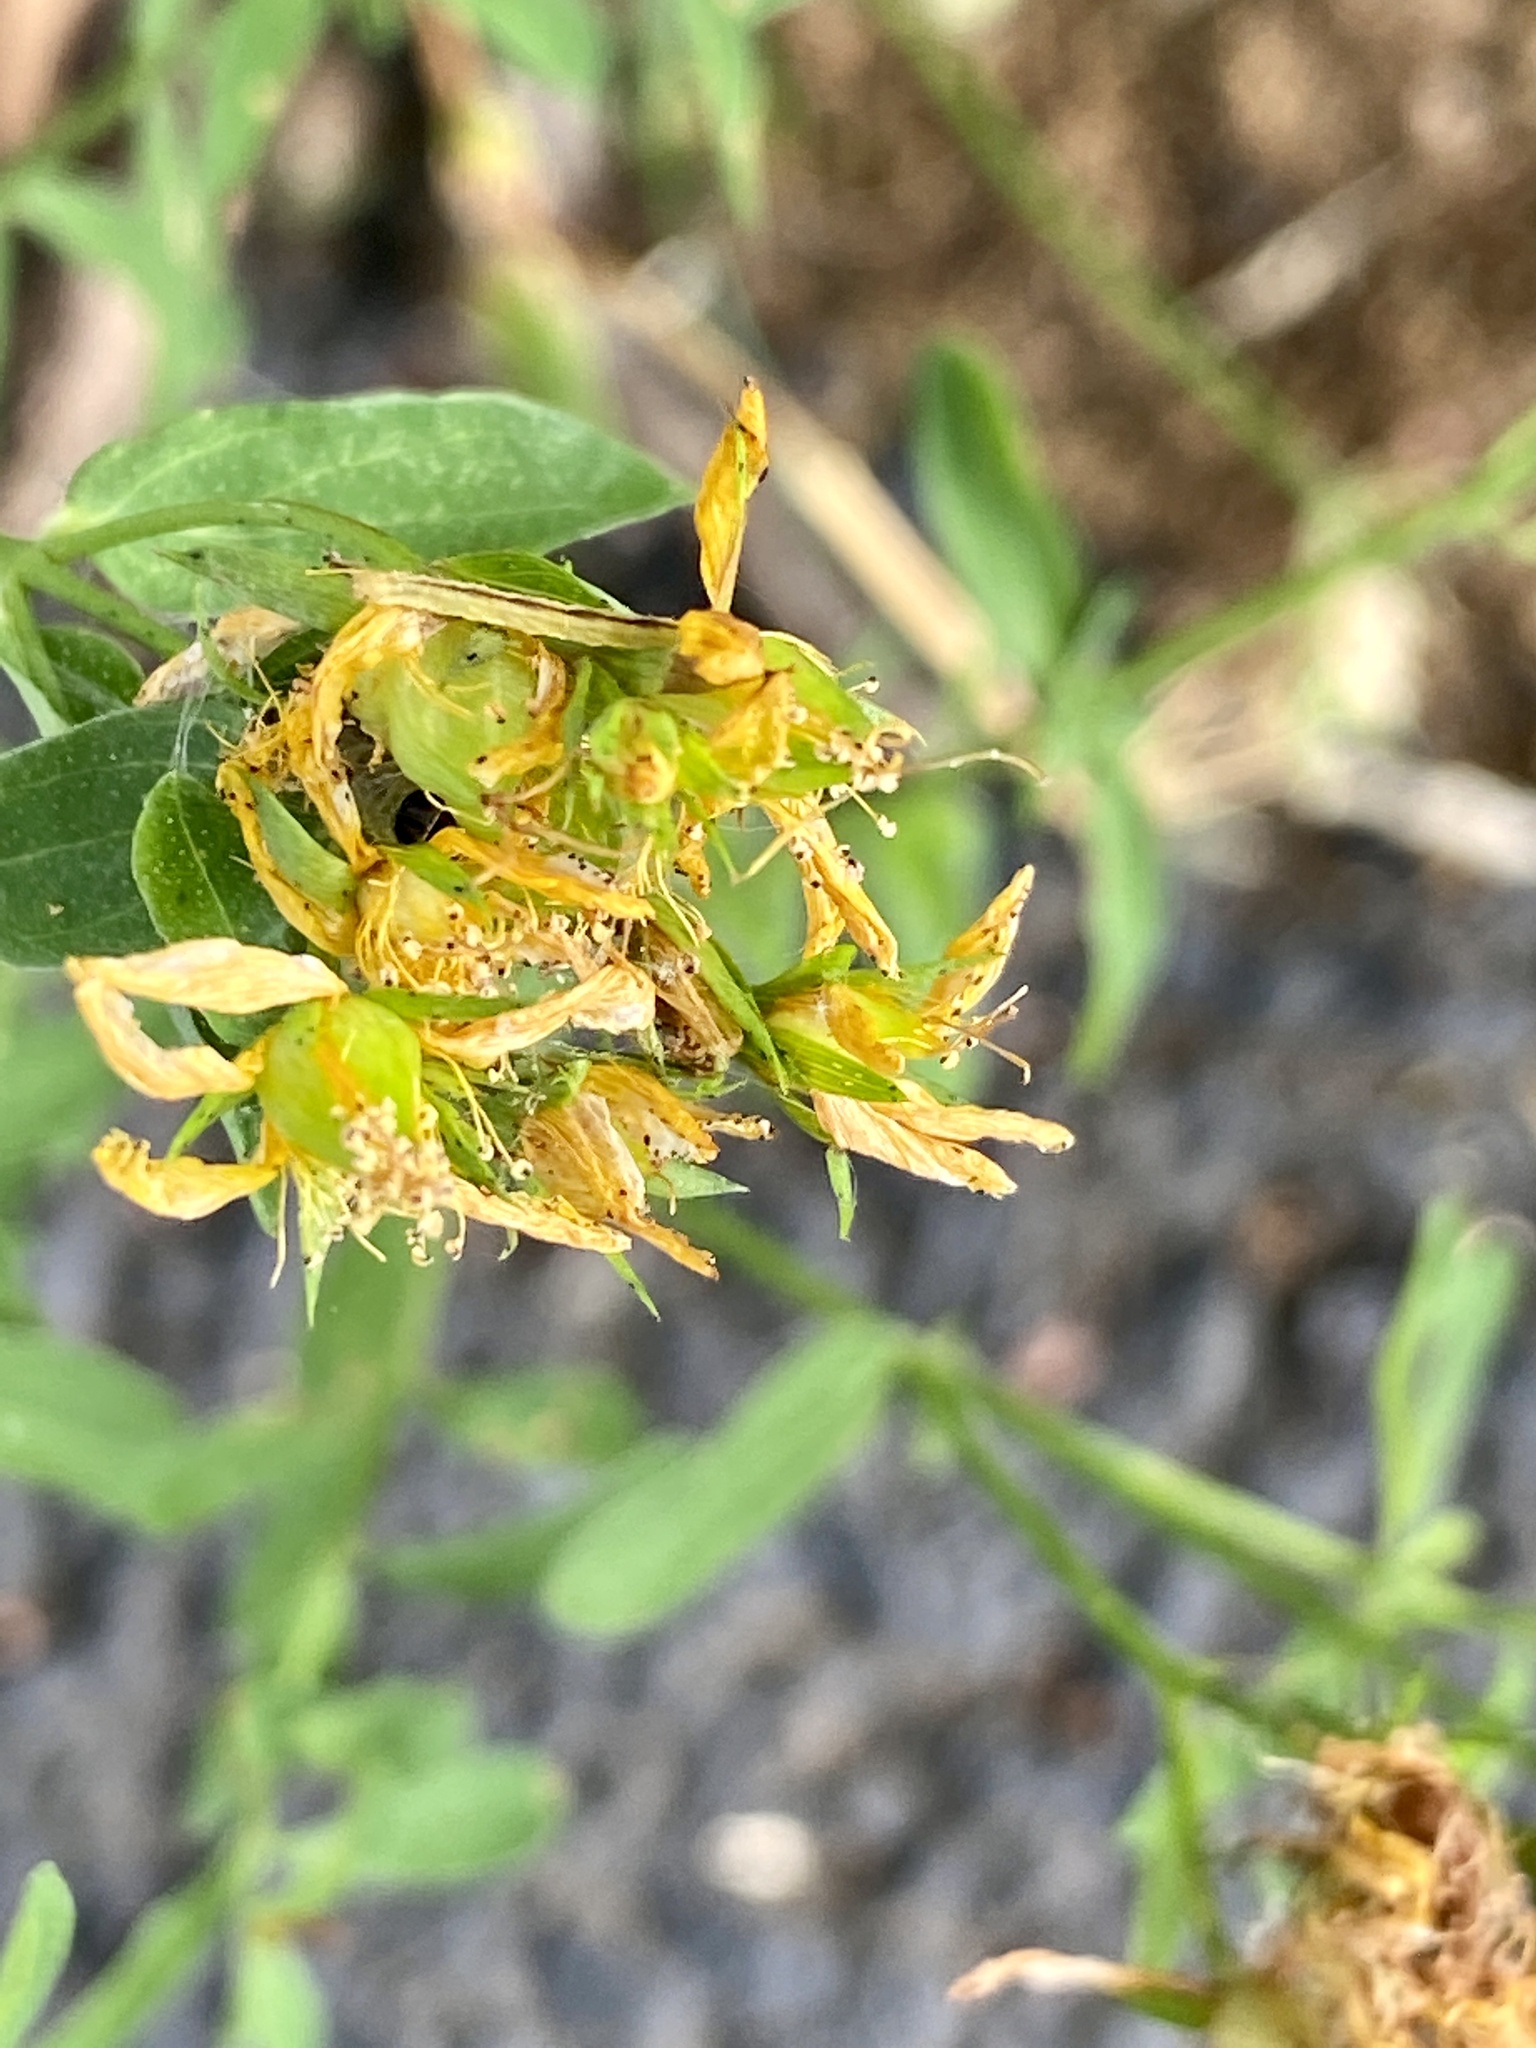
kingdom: Plantae
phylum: Tracheophyta
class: Magnoliopsida
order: Malpighiales
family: Hypericaceae
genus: Hypericum
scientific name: Hypericum perforatum
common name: Common st. johnswort
